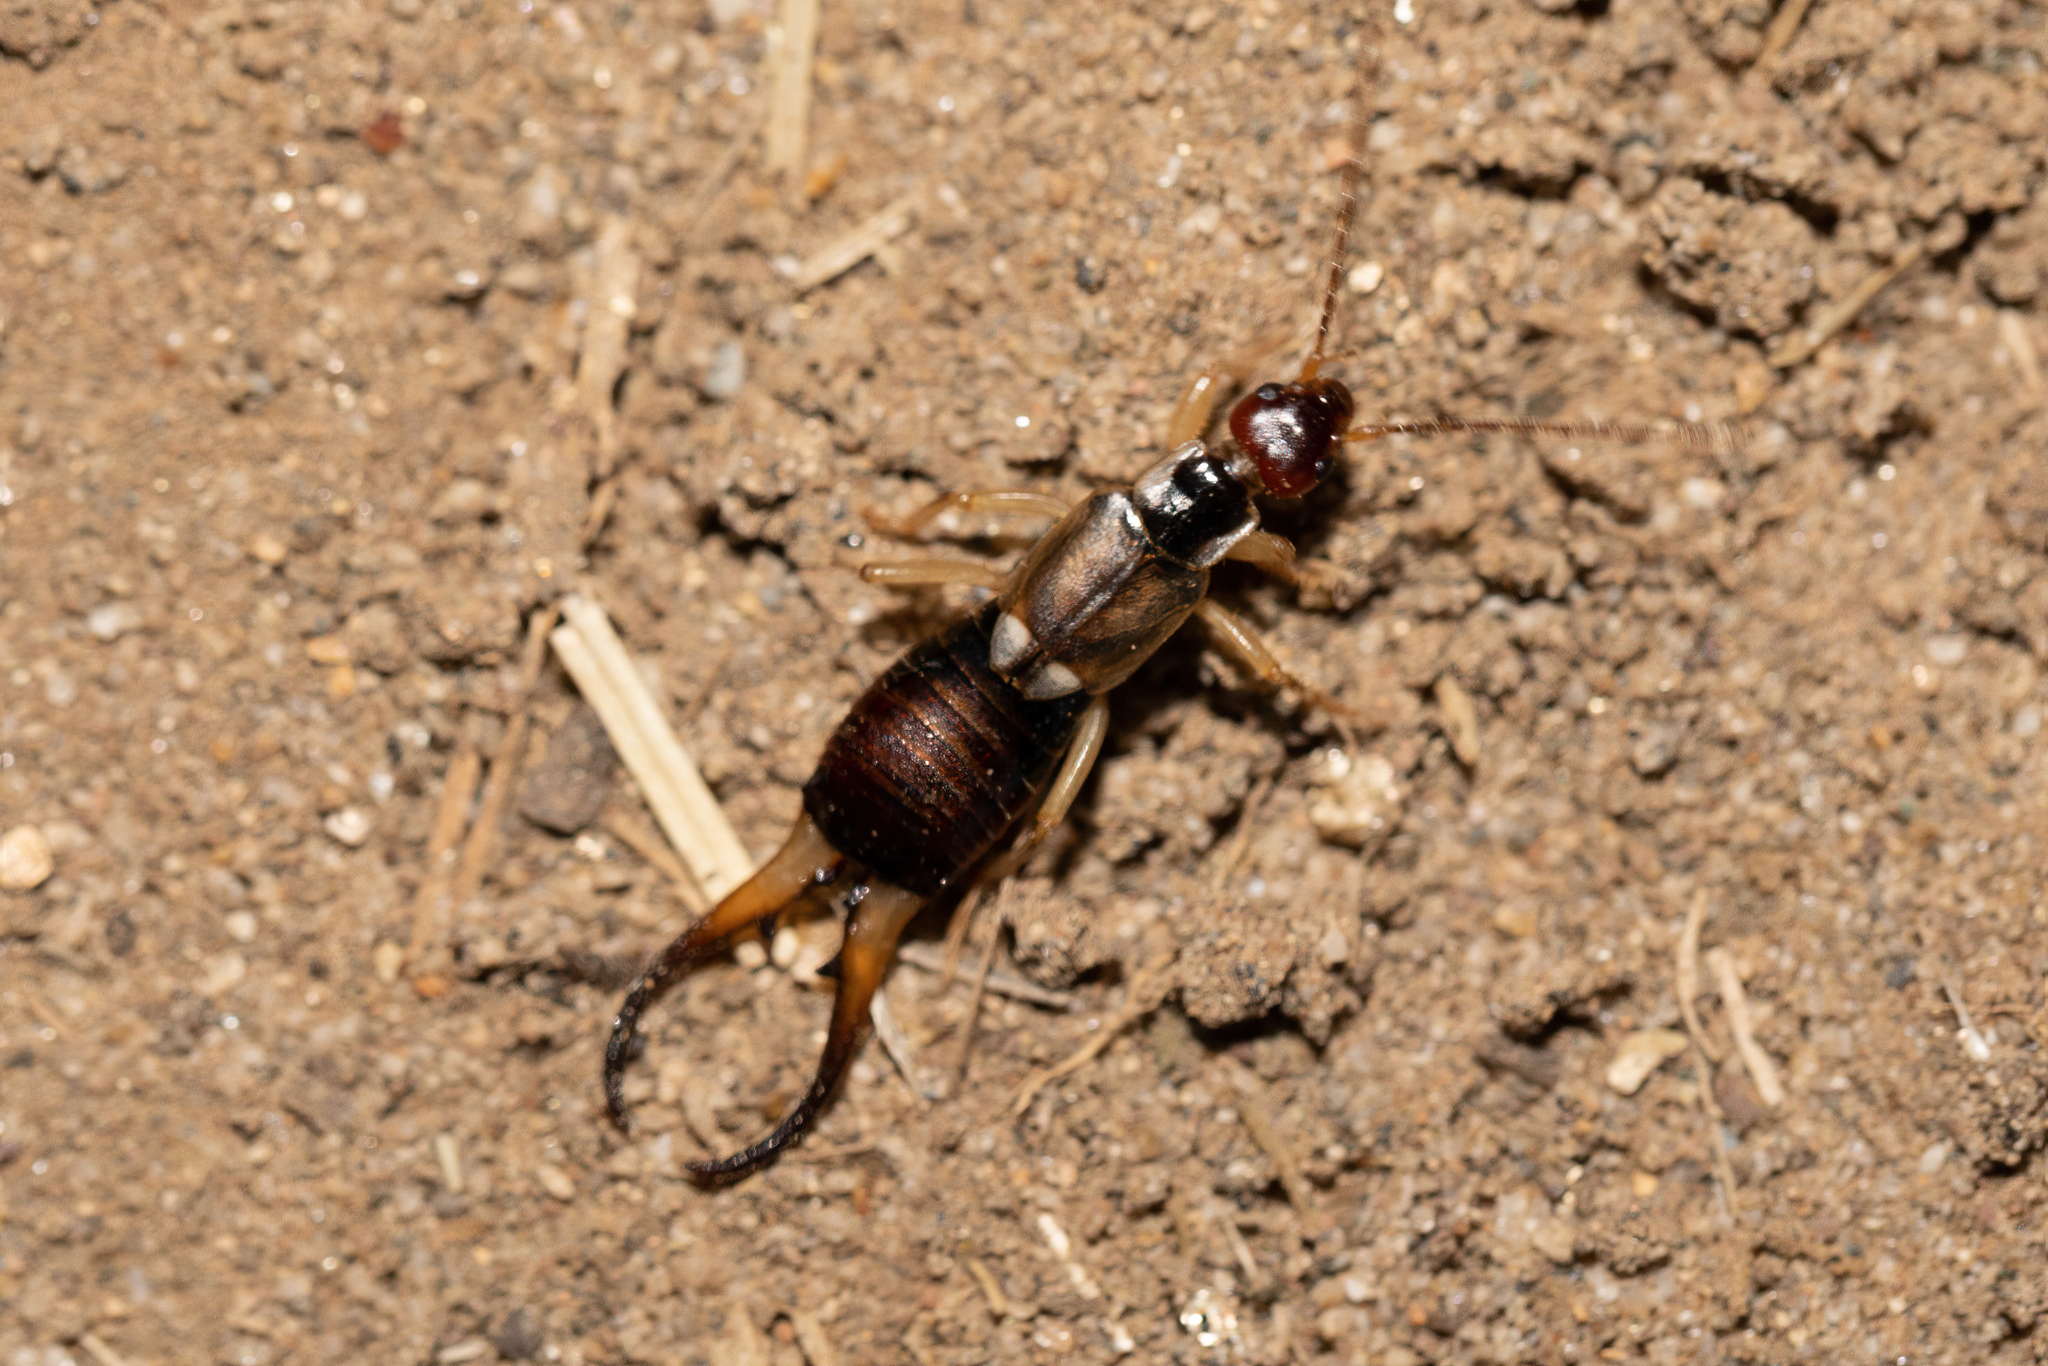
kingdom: Animalia
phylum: Arthropoda
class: Insecta
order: Dermaptera
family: Forficulidae
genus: Forficula
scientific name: Forficula
